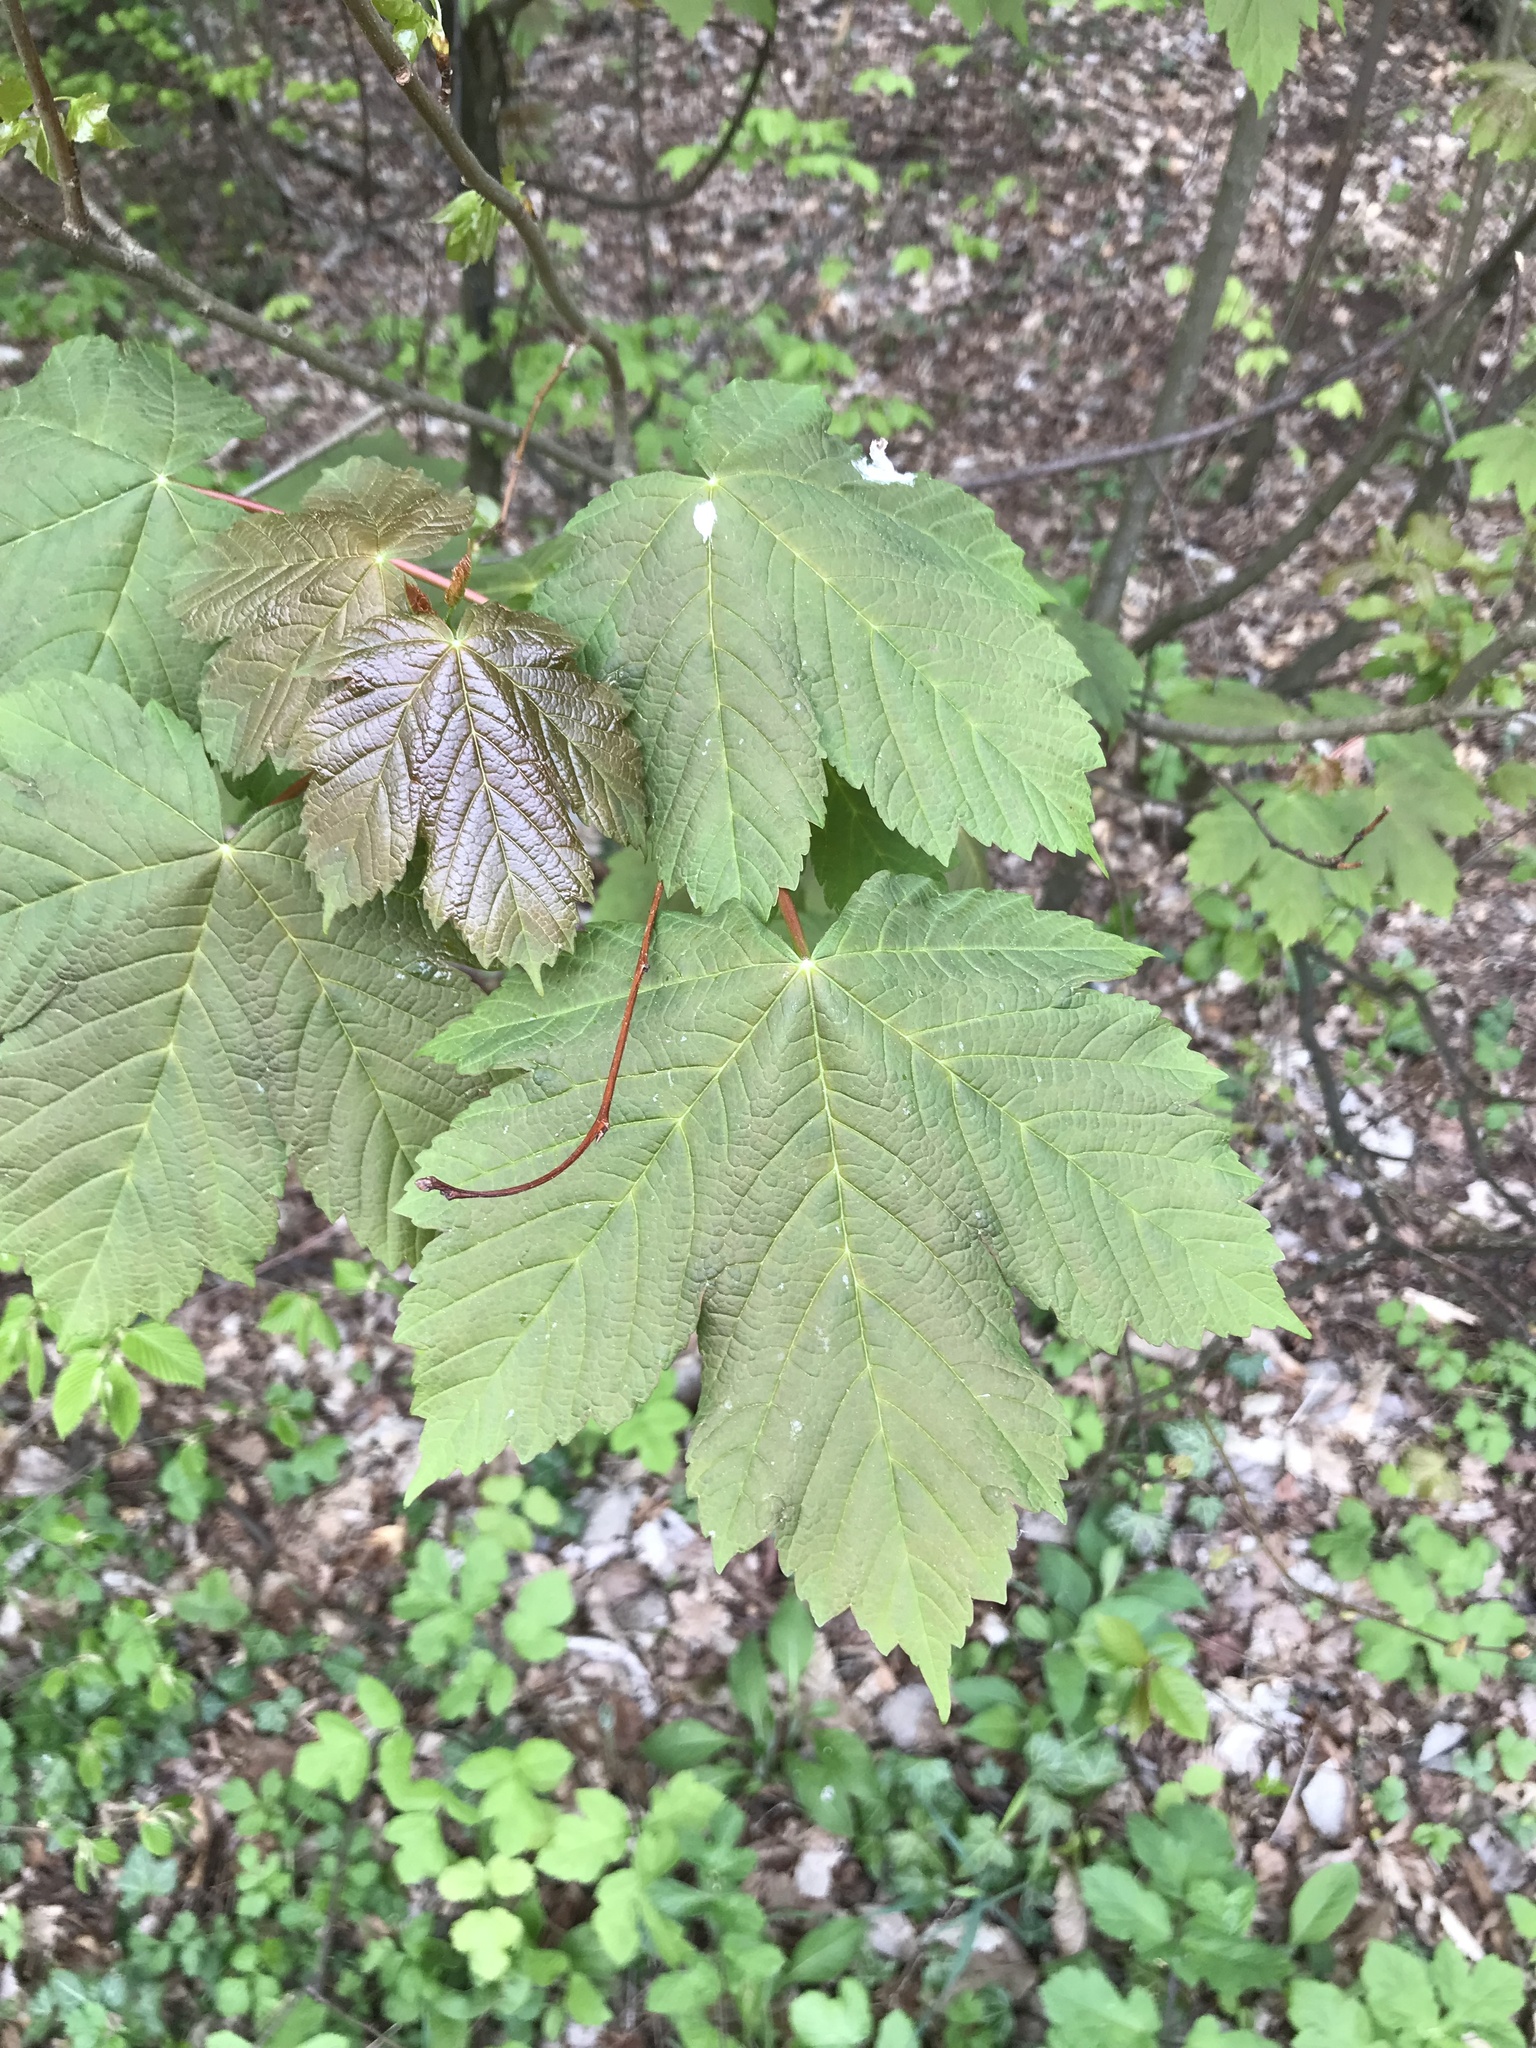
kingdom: Plantae
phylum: Tracheophyta
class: Magnoliopsida
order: Sapindales
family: Sapindaceae
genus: Acer
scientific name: Acer pseudoplatanus
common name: Sycamore
